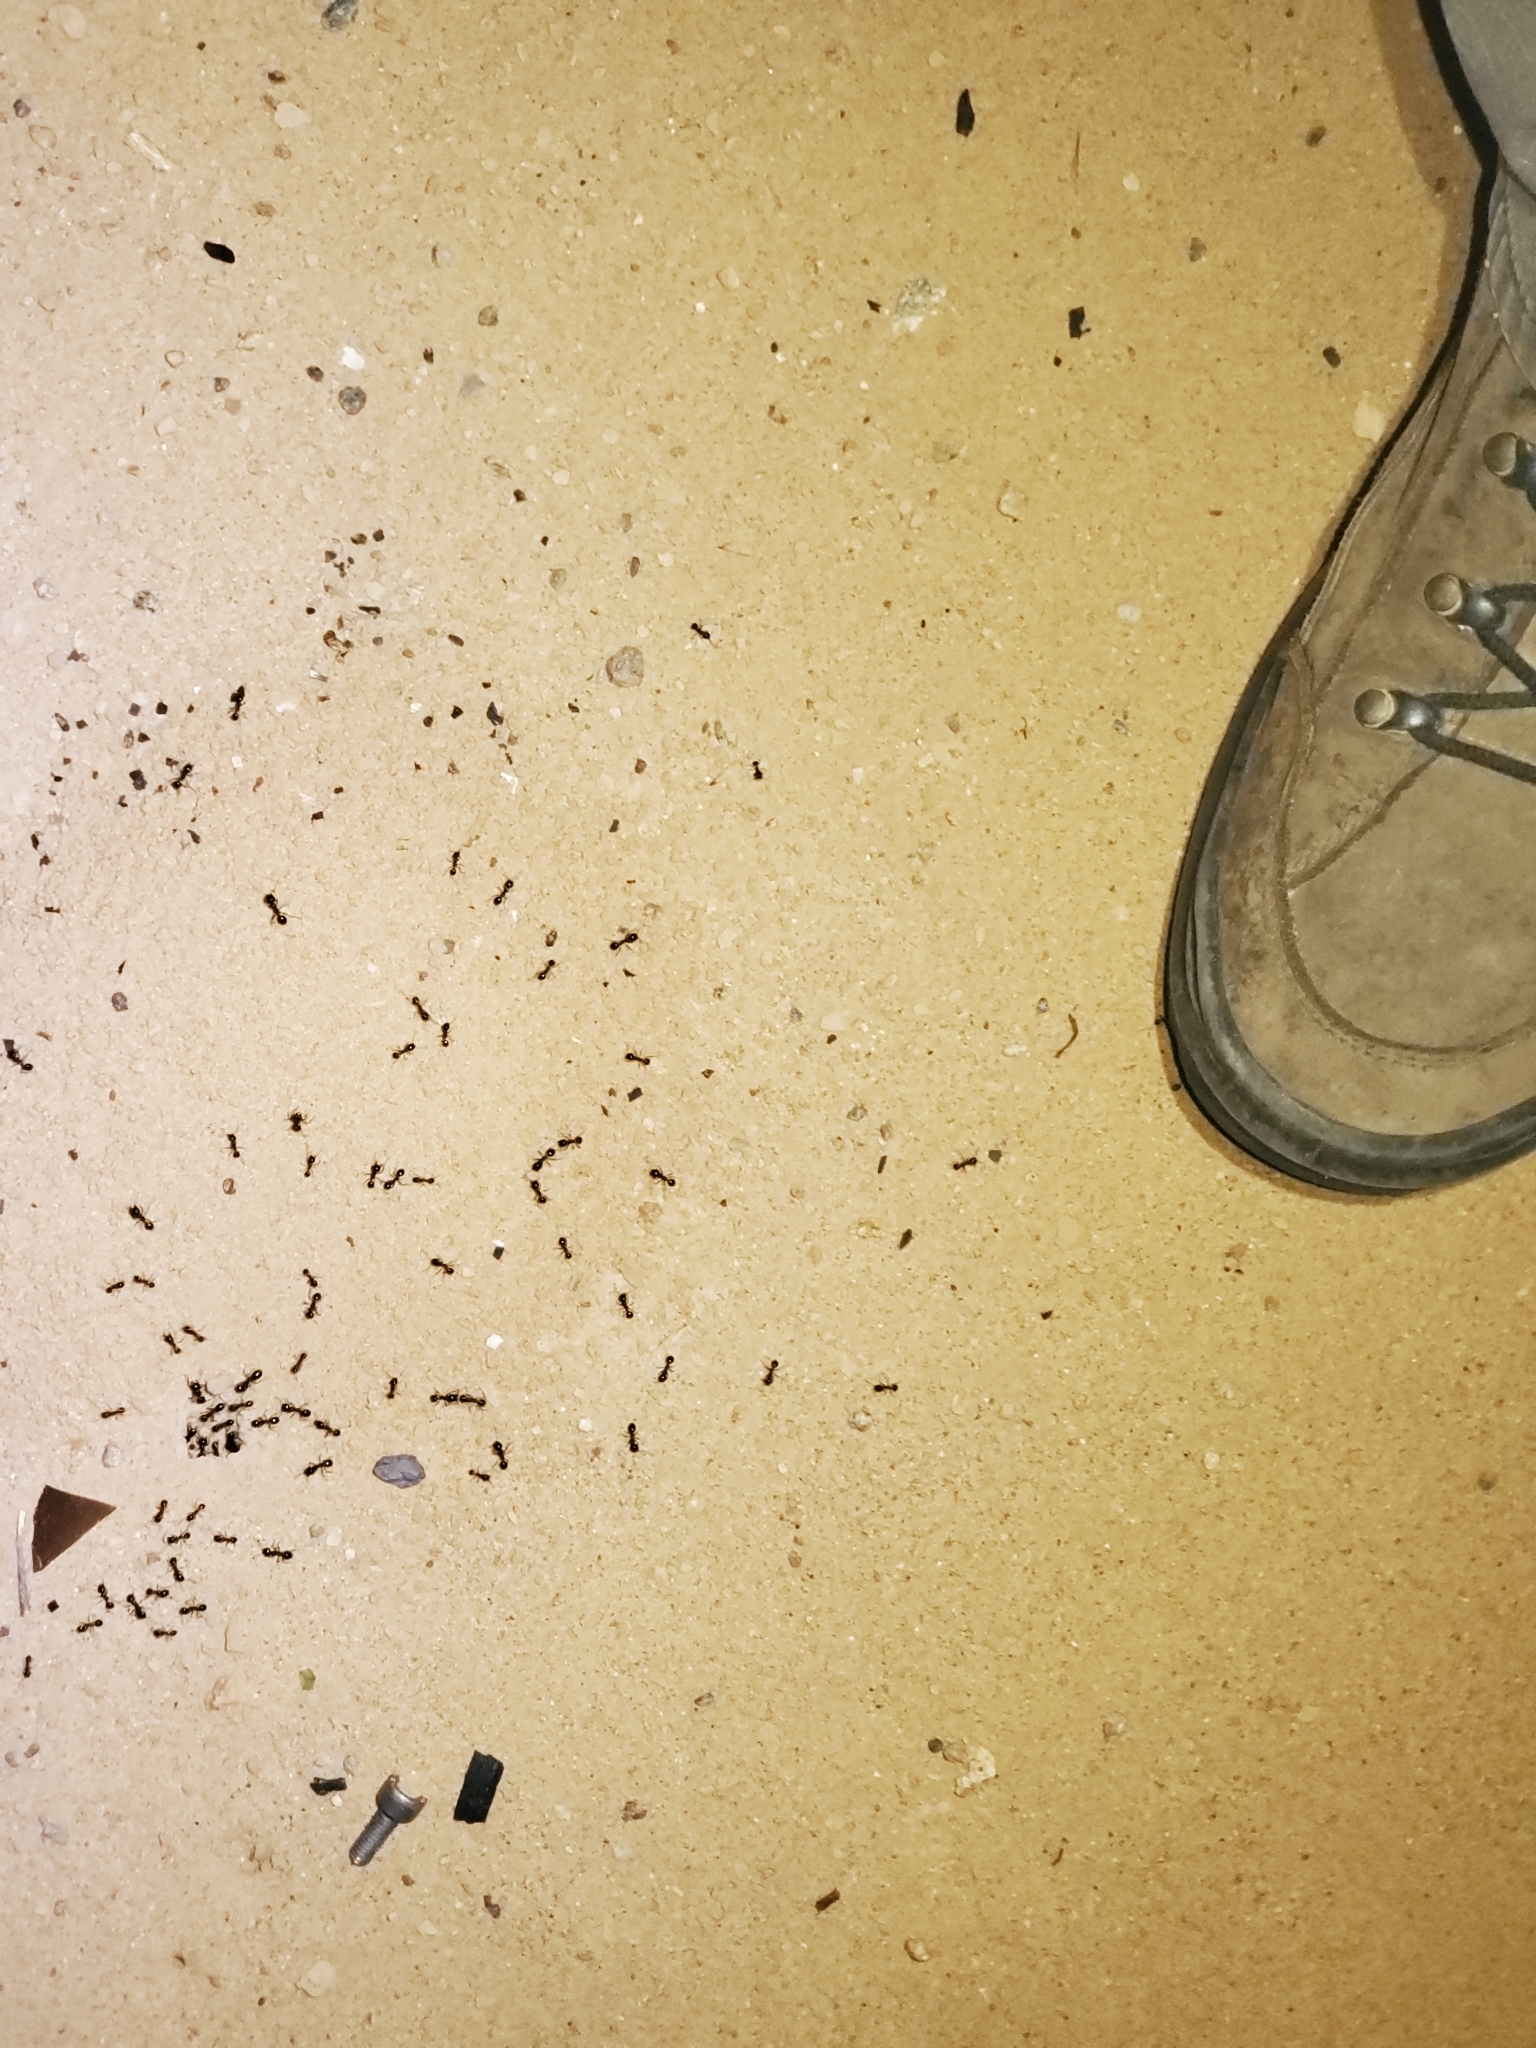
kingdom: Animalia
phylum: Arthropoda
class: Insecta
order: Hymenoptera
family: Formicidae
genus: Messor
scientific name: Messor pergandei
